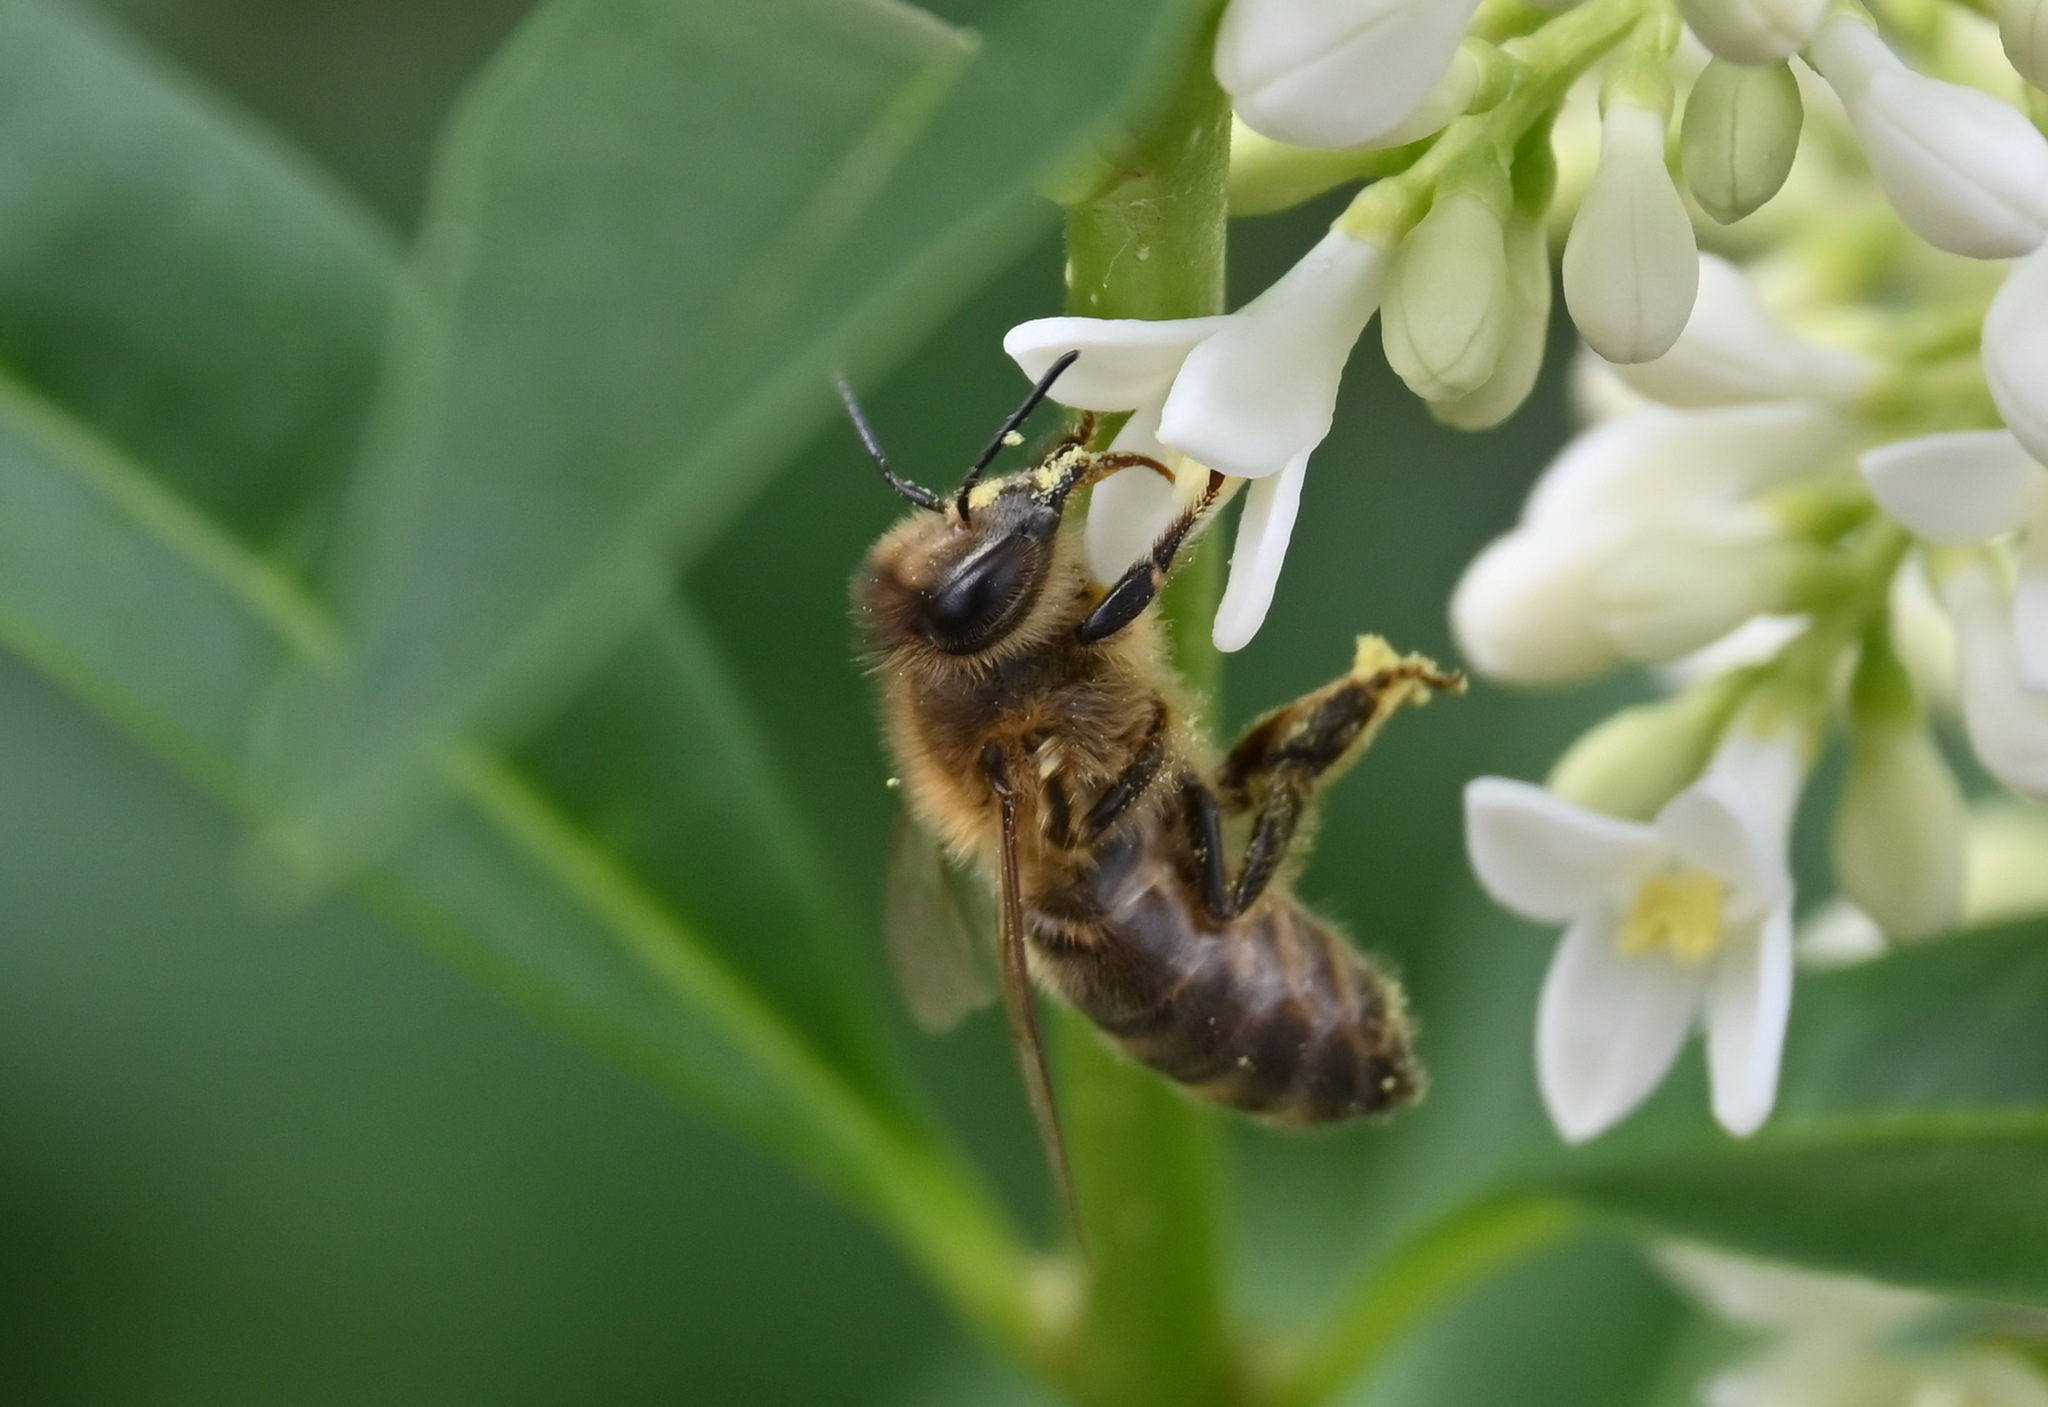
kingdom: Animalia
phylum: Arthropoda
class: Insecta
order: Hymenoptera
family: Apidae
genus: Apis
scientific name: Apis mellifera
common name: Honey bee
